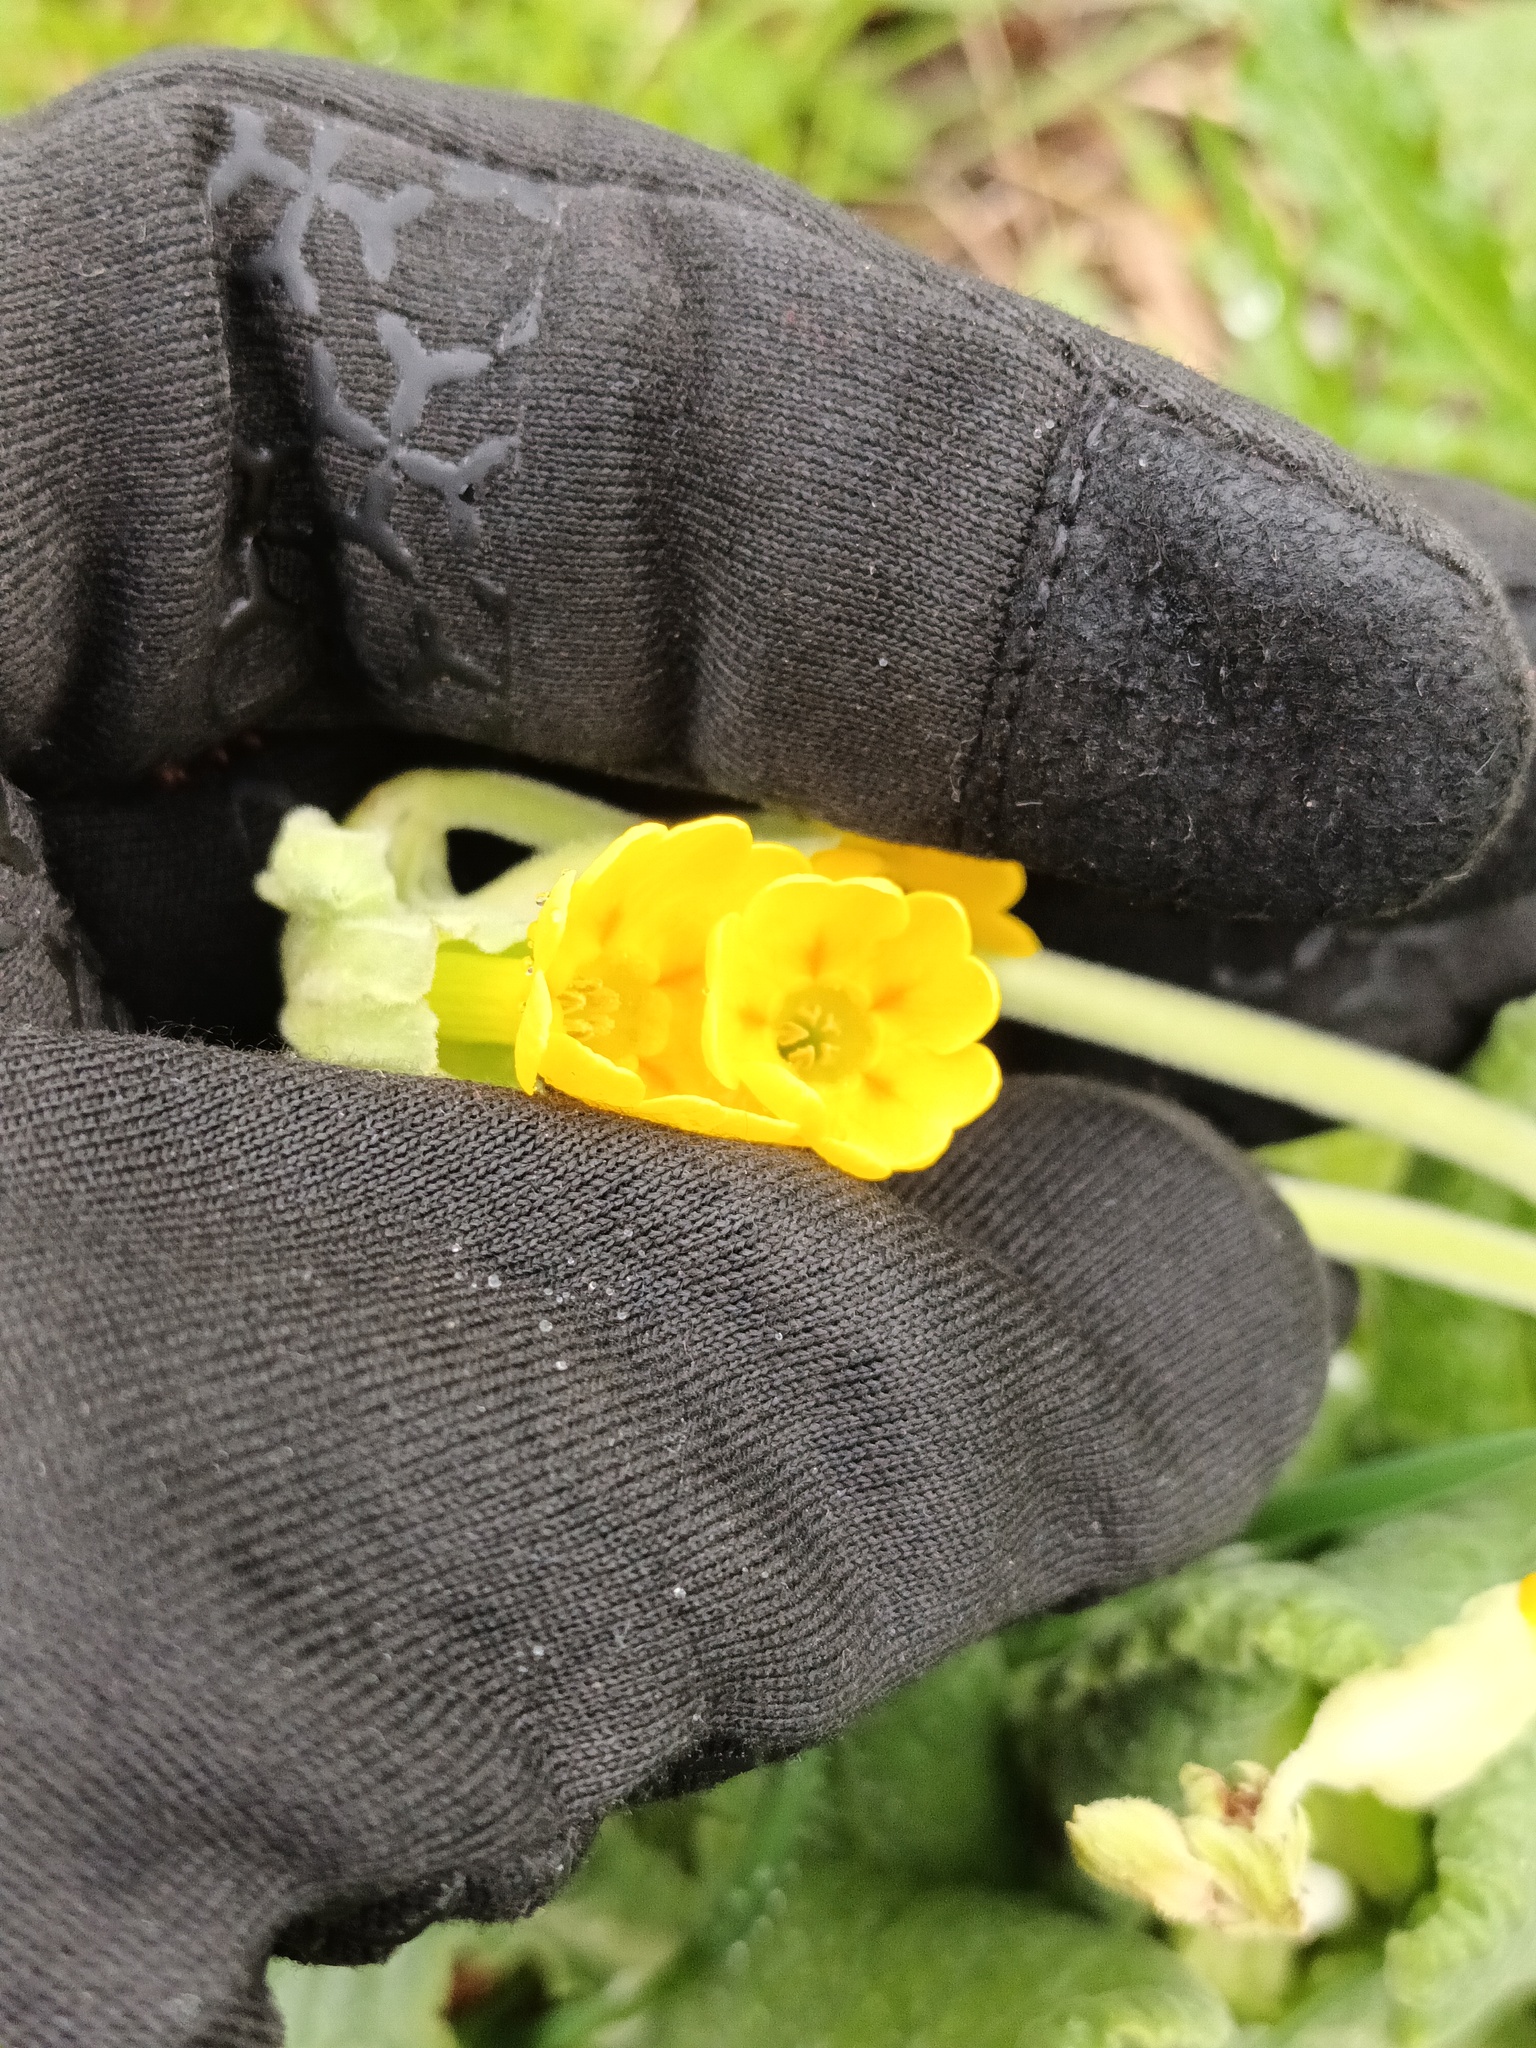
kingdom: Plantae
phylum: Tracheophyta
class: Magnoliopsida
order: Ericales
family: Primulaceae
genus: Primula
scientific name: Primula veris
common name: Cowslip
